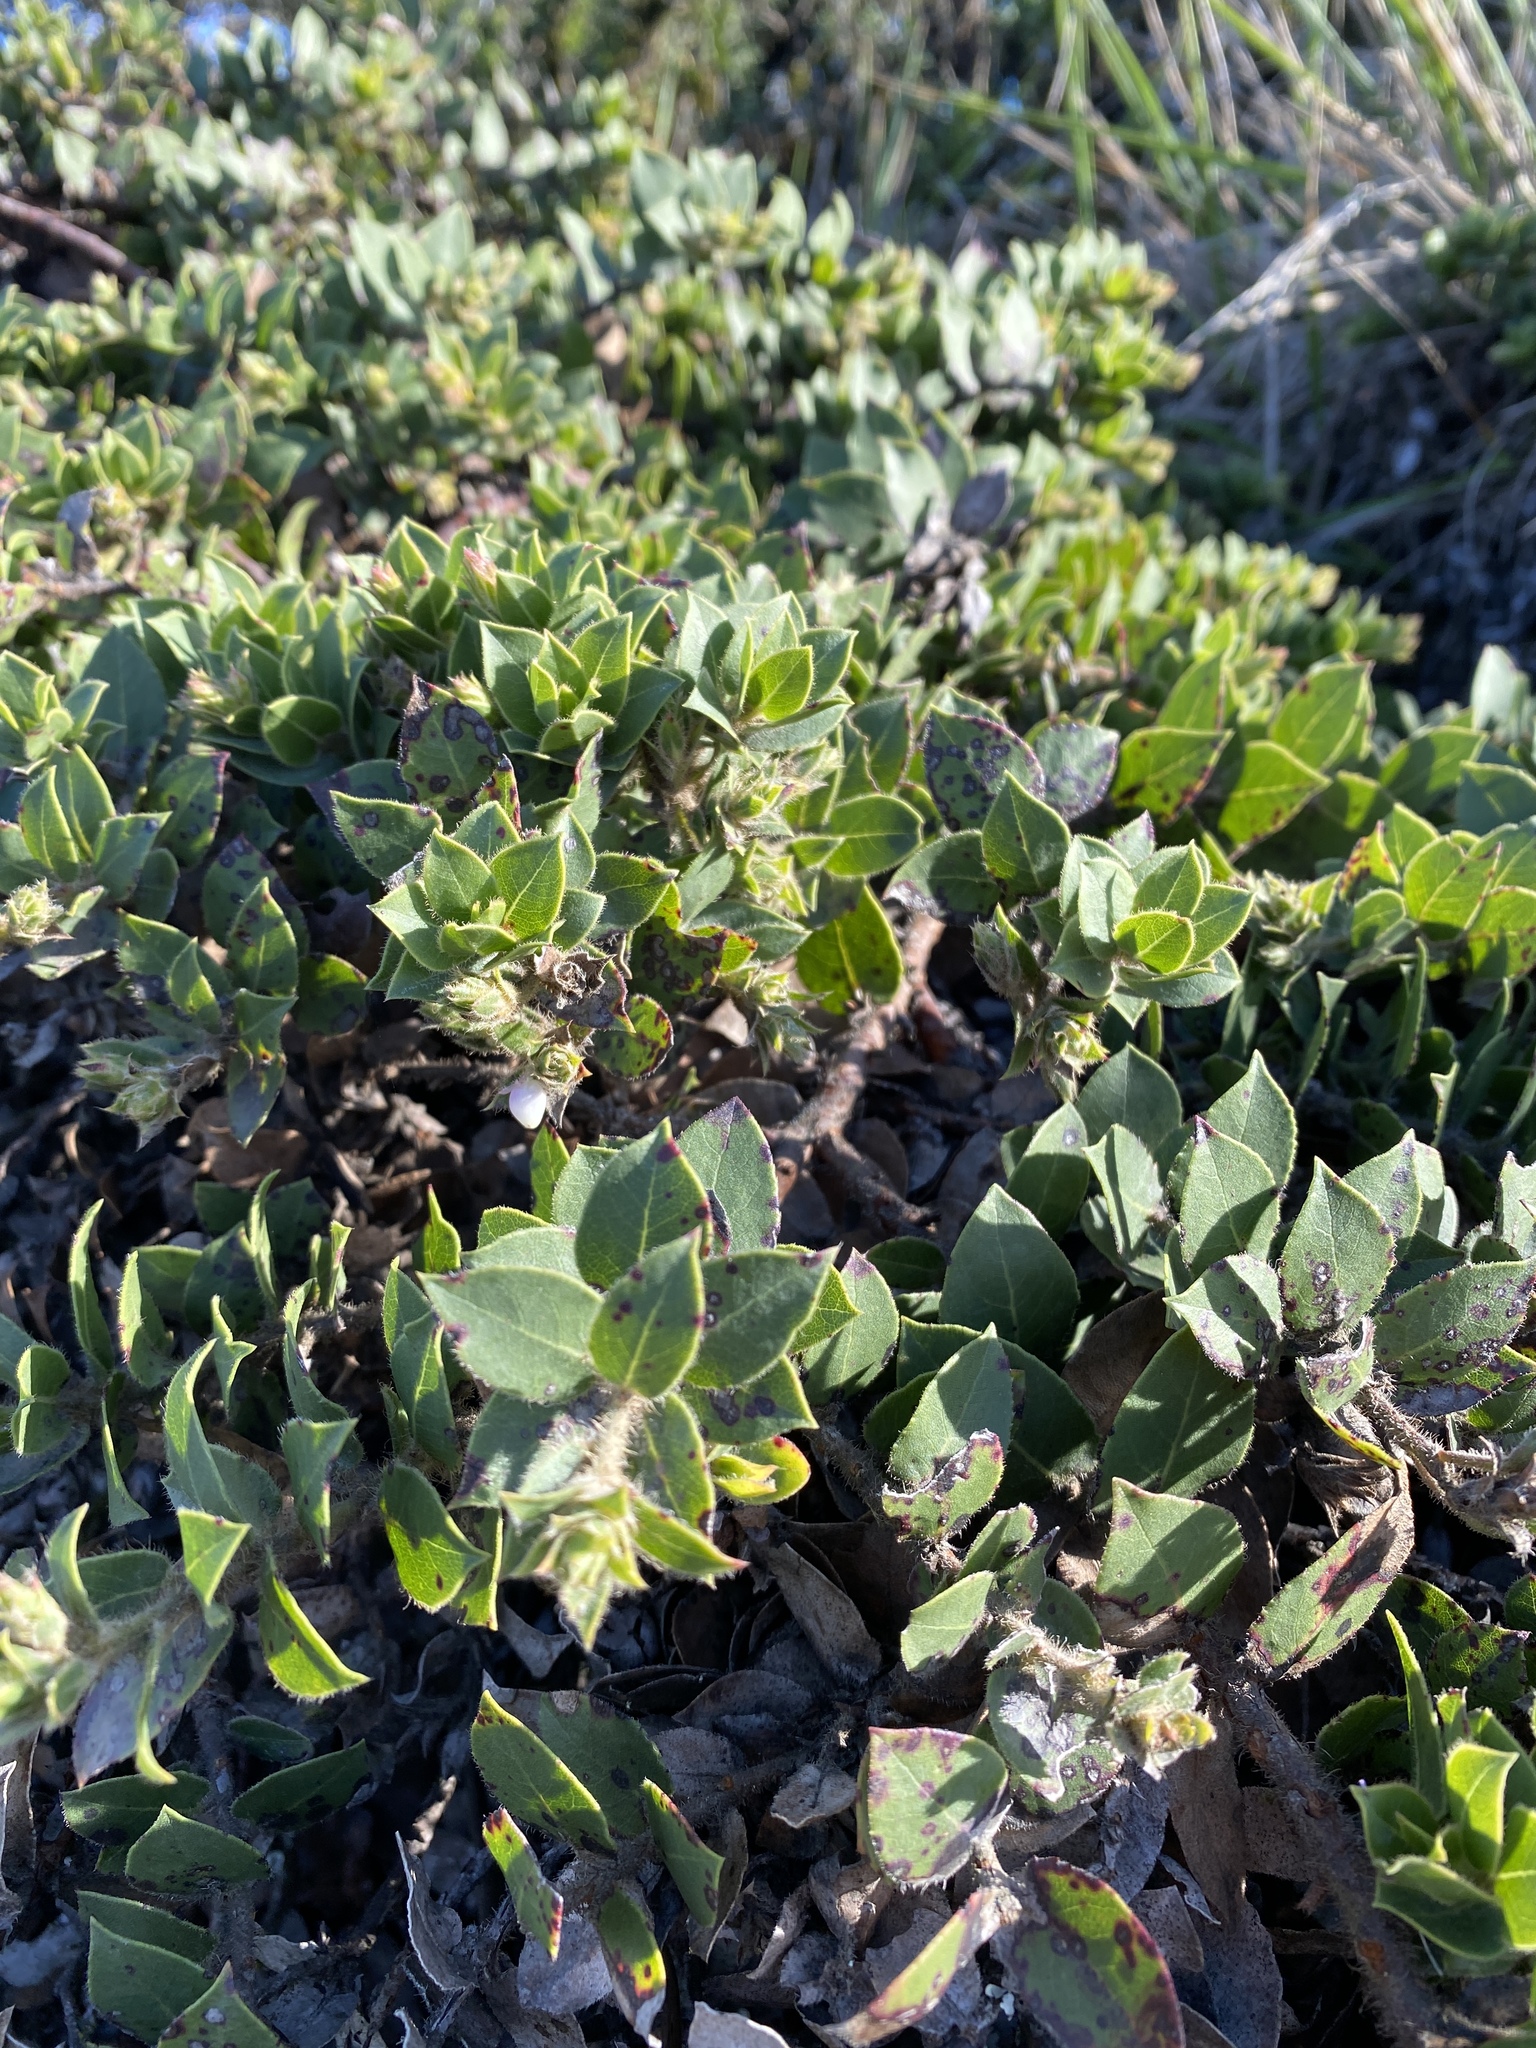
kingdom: Plantae
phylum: Tracheophyta
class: Magnoliopsida
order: Ericales
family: Ericaceae
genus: Arctostaphylos
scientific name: Arctostaphylos imbricata
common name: San bruno mountain manzanita
